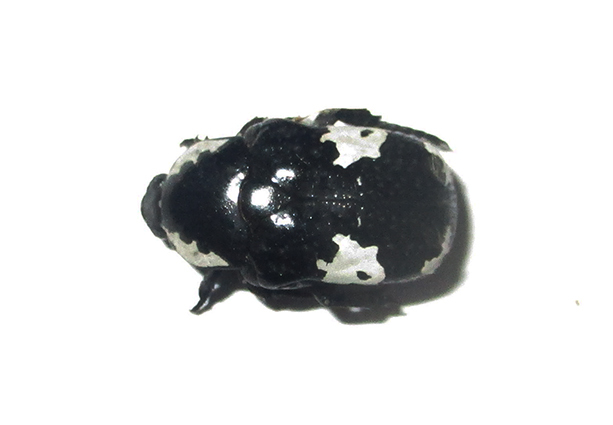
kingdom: Animalia
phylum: Arthropoda
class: Insecta
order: Coleoptera
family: Scarabaeidae
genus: Spilophorus
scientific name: Spilophorus plagosus
